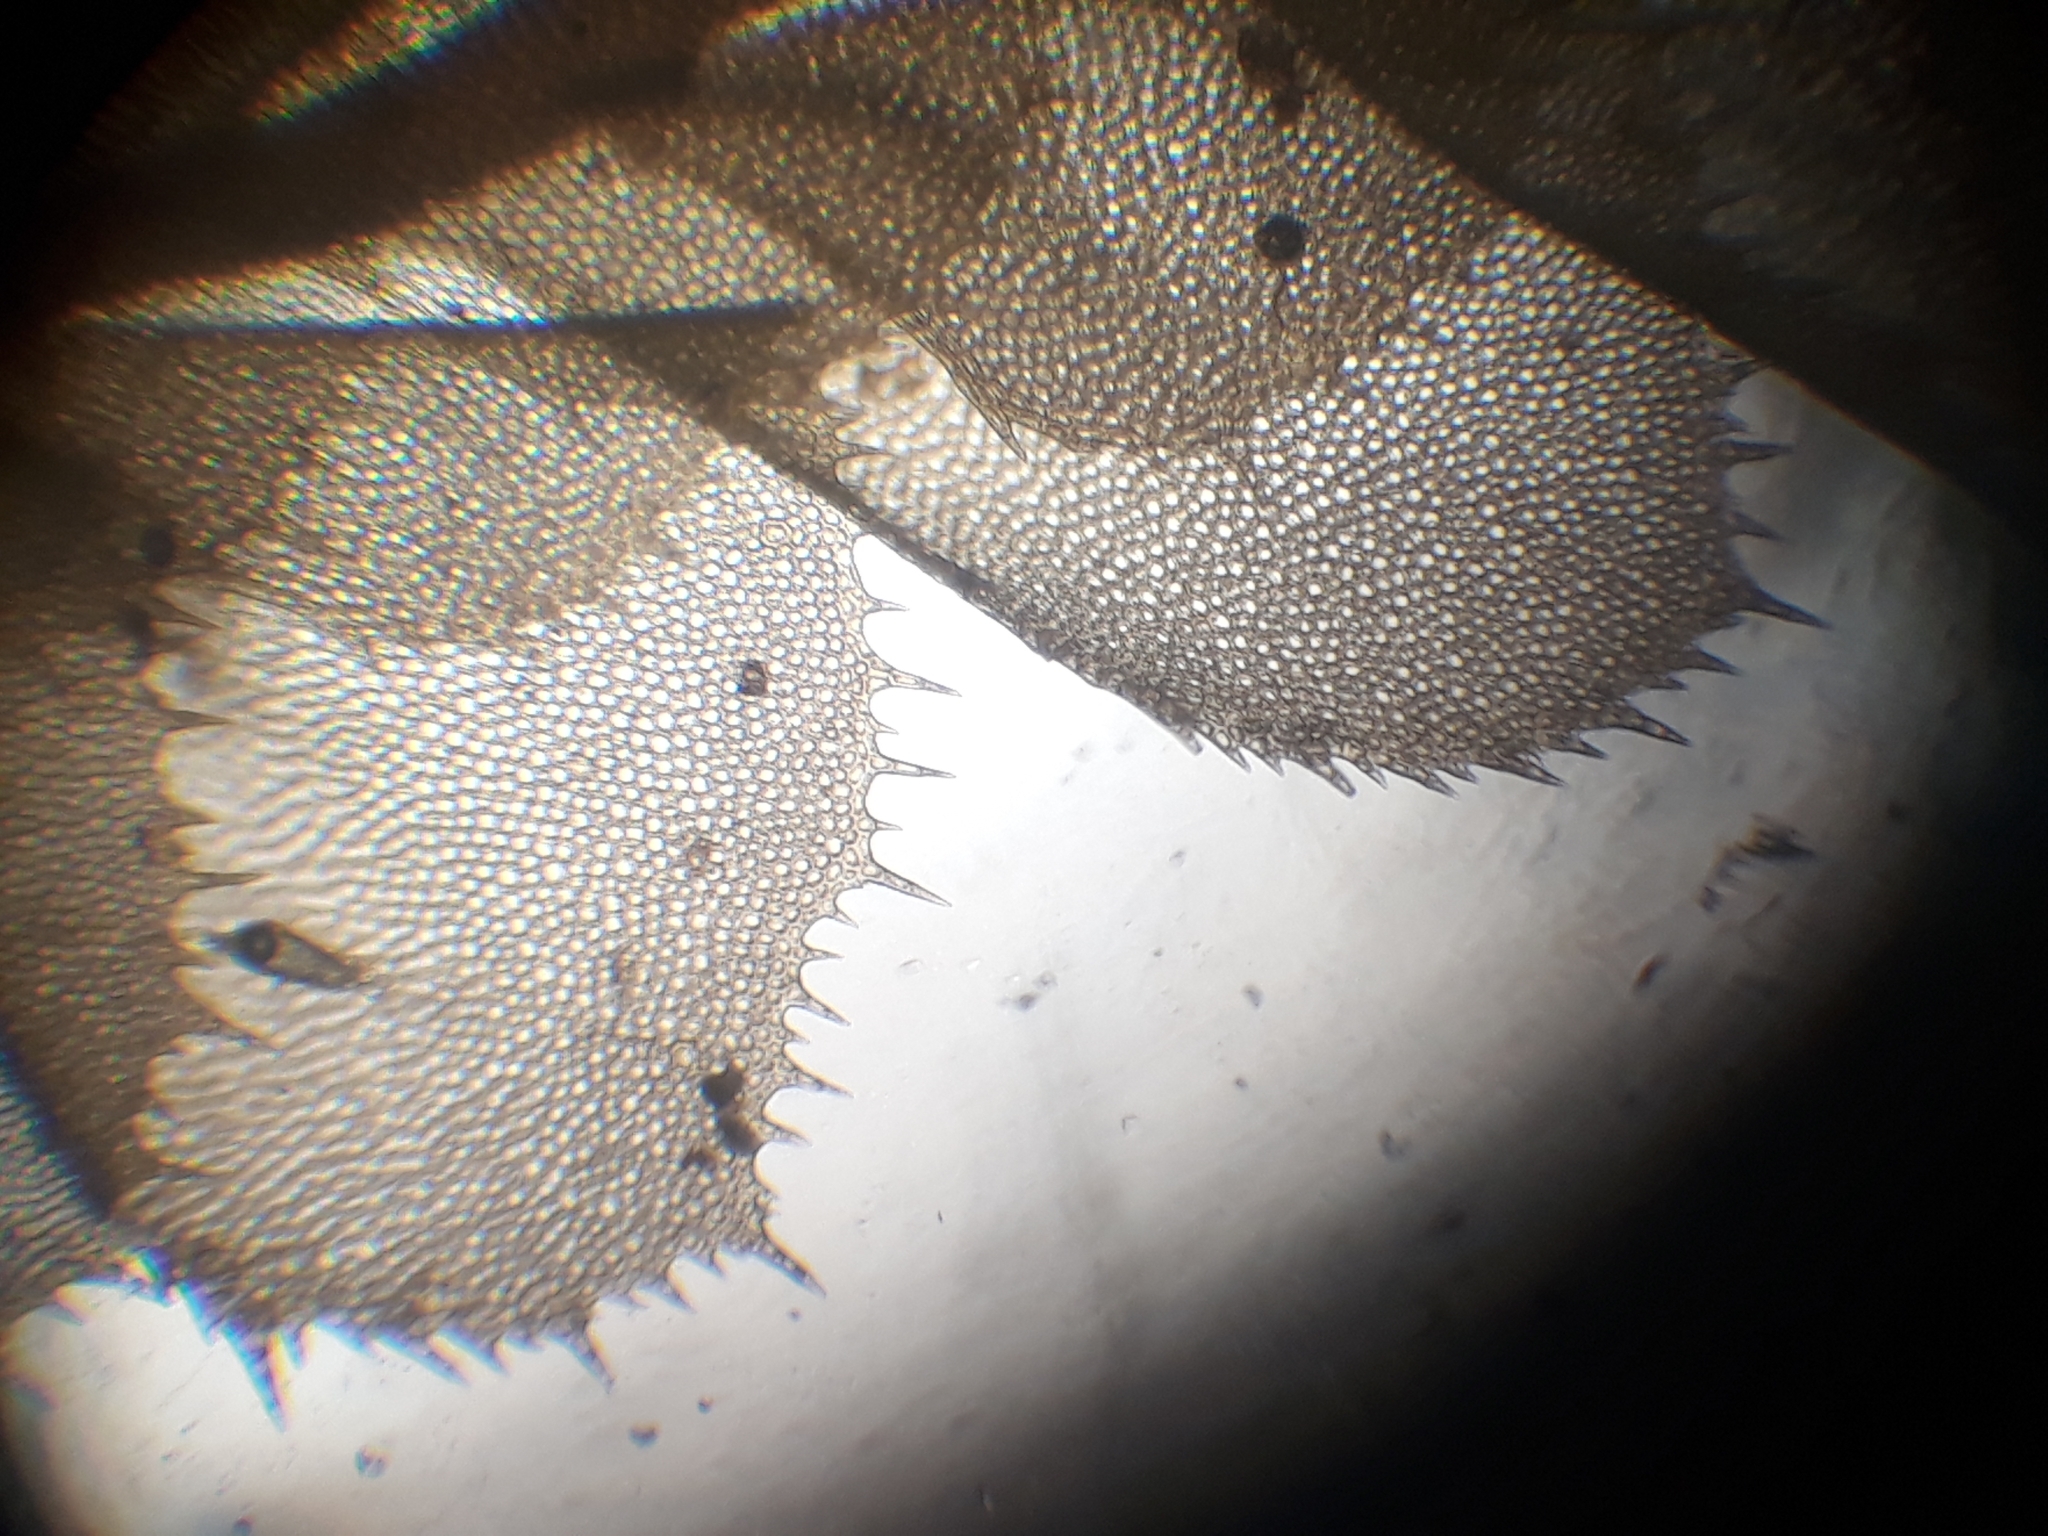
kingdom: Plantae
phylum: Marchantiophyta
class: Jungermanniopsida
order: Jungermanniales
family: Plagiochilaceae
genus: Plagiochila
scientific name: Plagiochila gigantea
